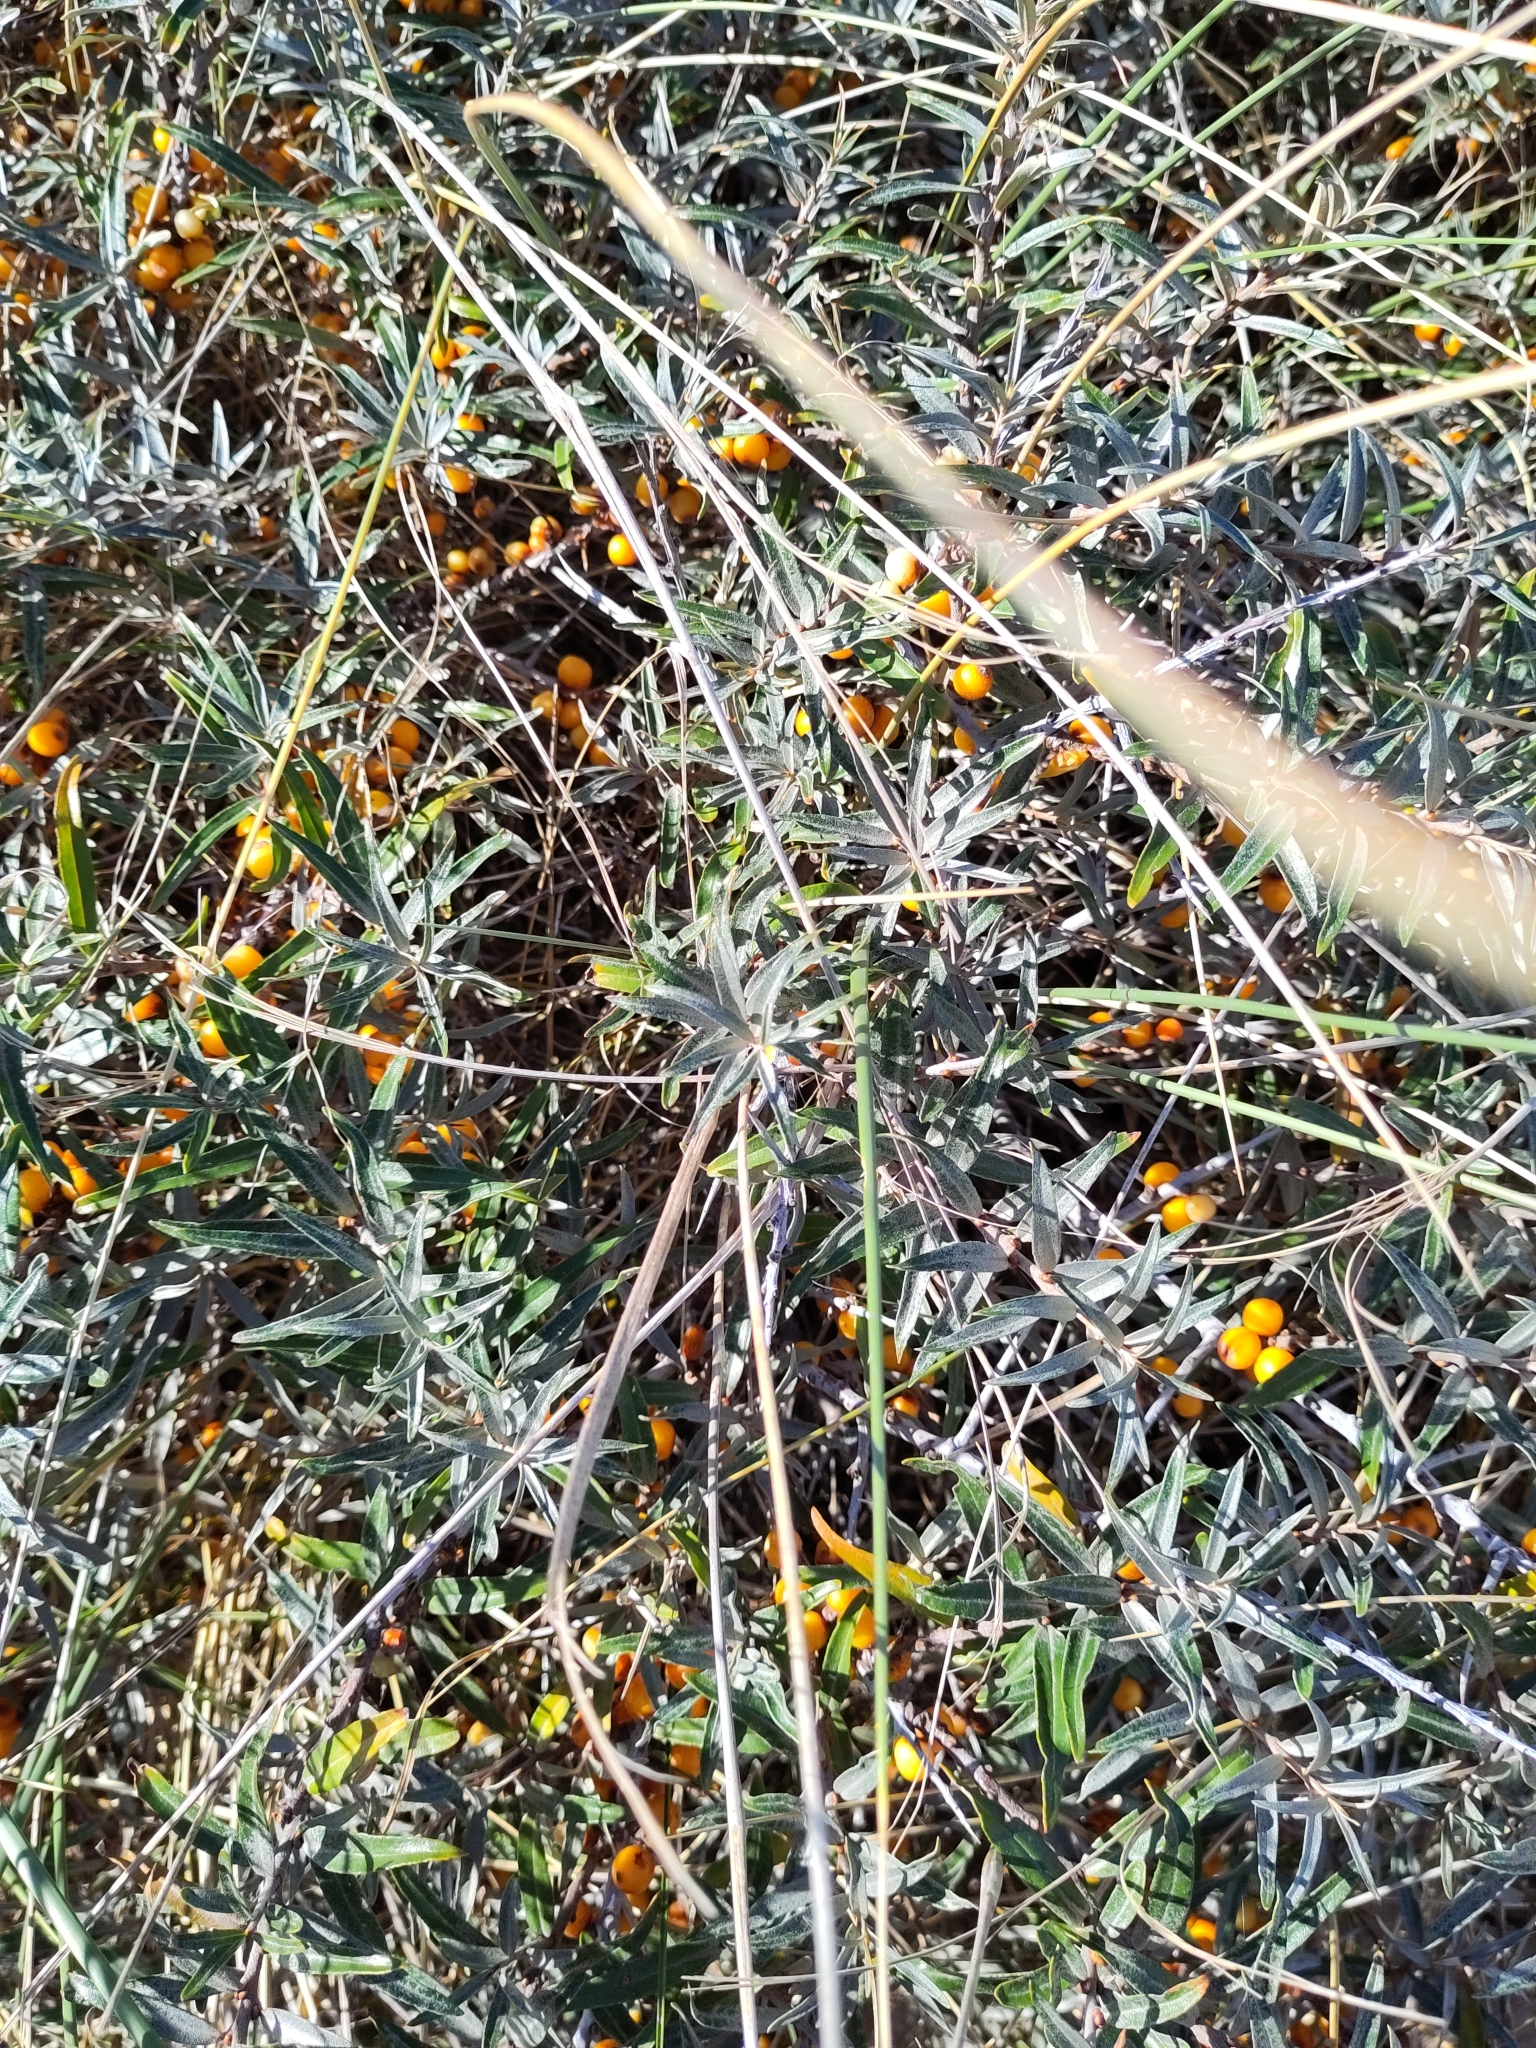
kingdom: Plantae
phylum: Tracheophyta
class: Magnoliopsida
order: Rosales
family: Elaeagnaceae
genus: Hippophae
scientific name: Hippophae rhamnoides
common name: Sea-buckthorn
